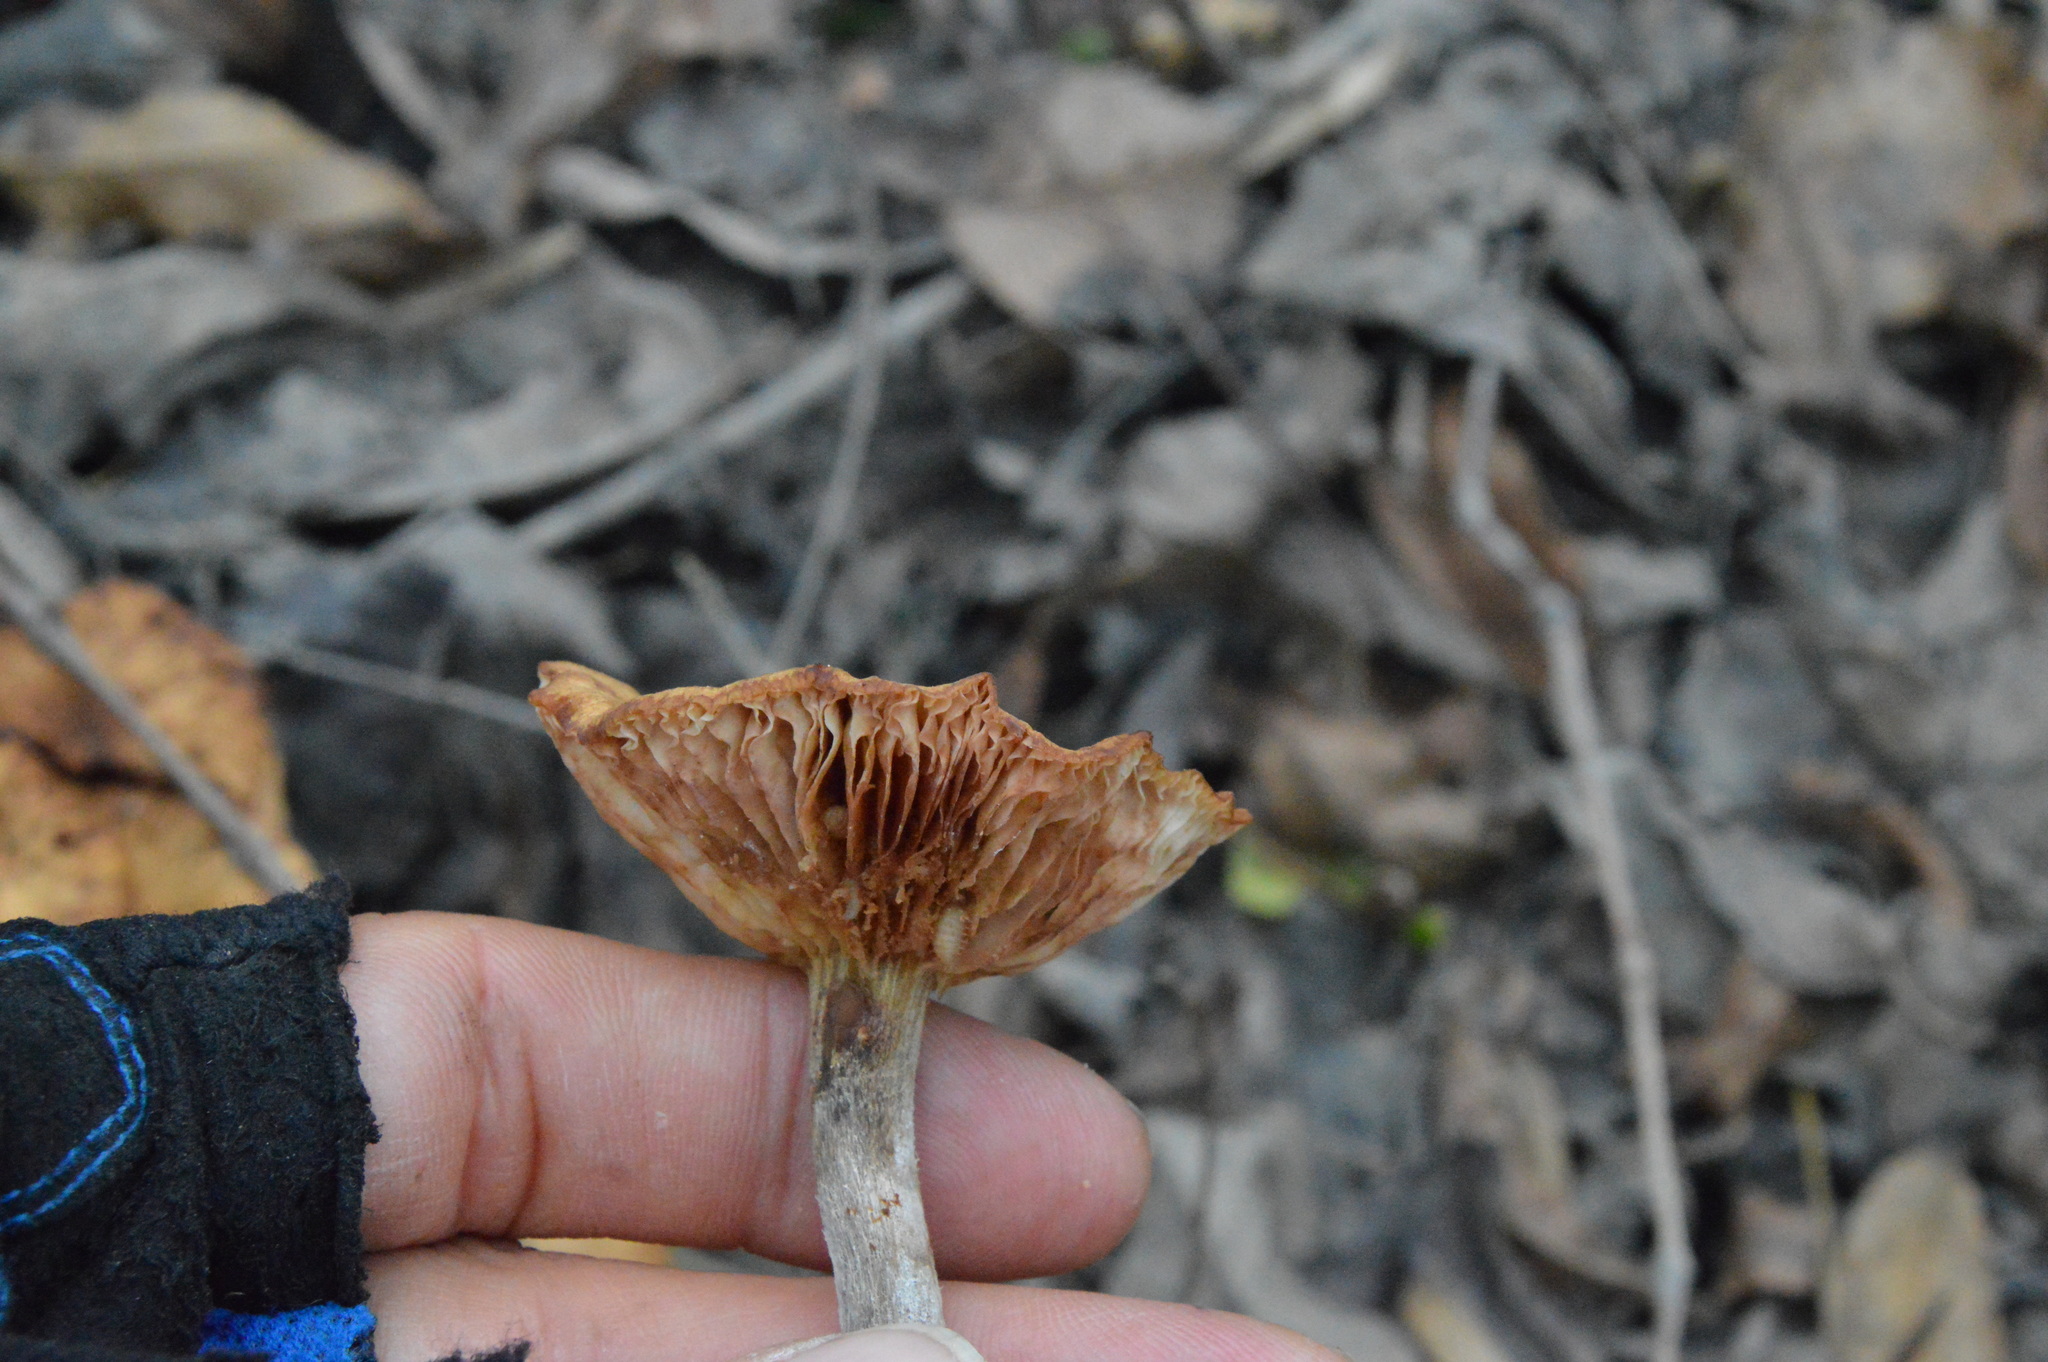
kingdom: Fungi
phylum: Basidiomycota
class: Agaricomycetes
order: Agaricales
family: Physalacriaceae
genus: Desarmillaria
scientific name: Desarmillaria caespitosa
